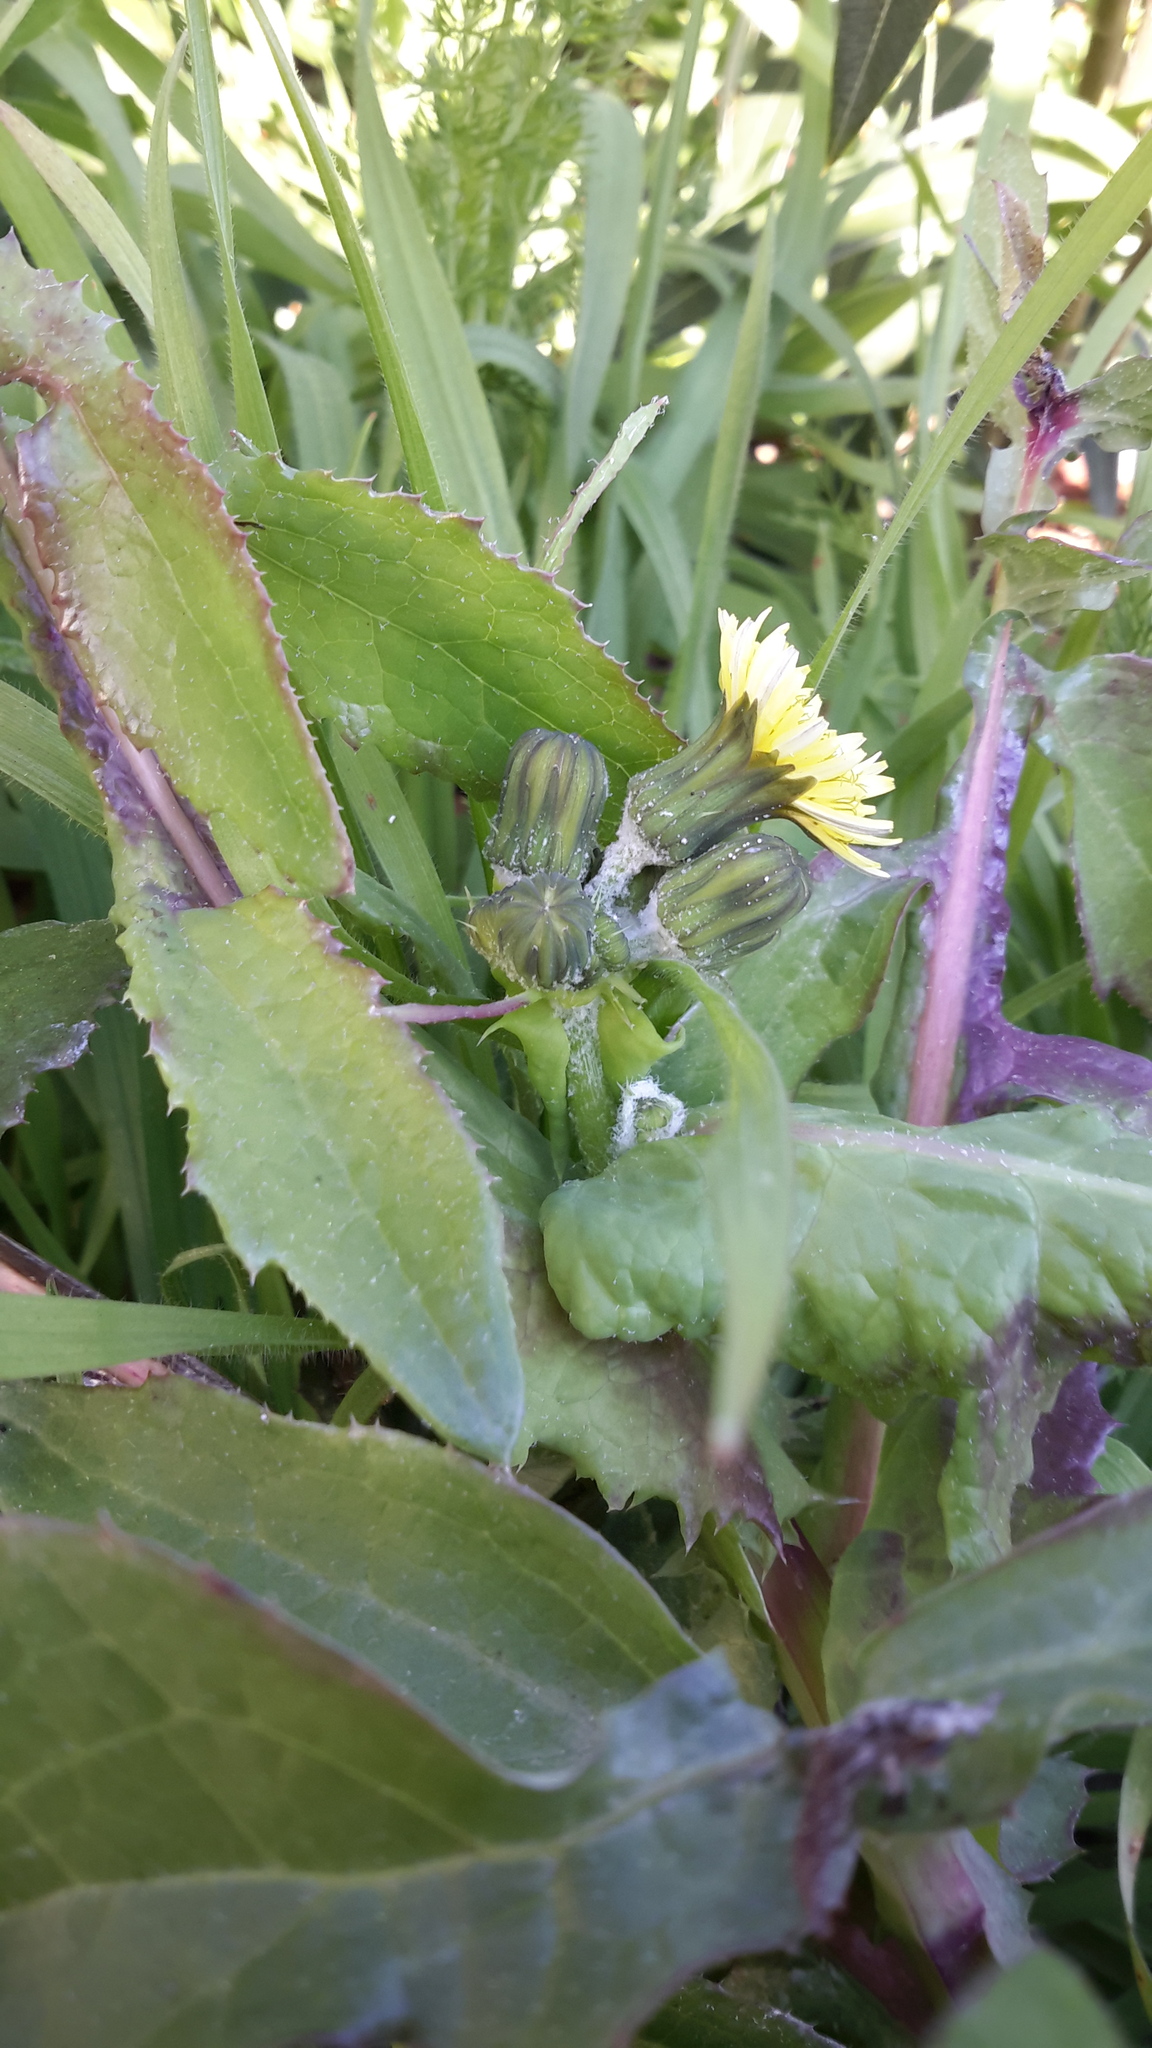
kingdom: Plantae
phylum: Tracheophyta
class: Magnoliopsida
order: Asterales
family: Asteraceae
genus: Sonchus
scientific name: Sonchus oleraceus
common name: Common sowthistle
